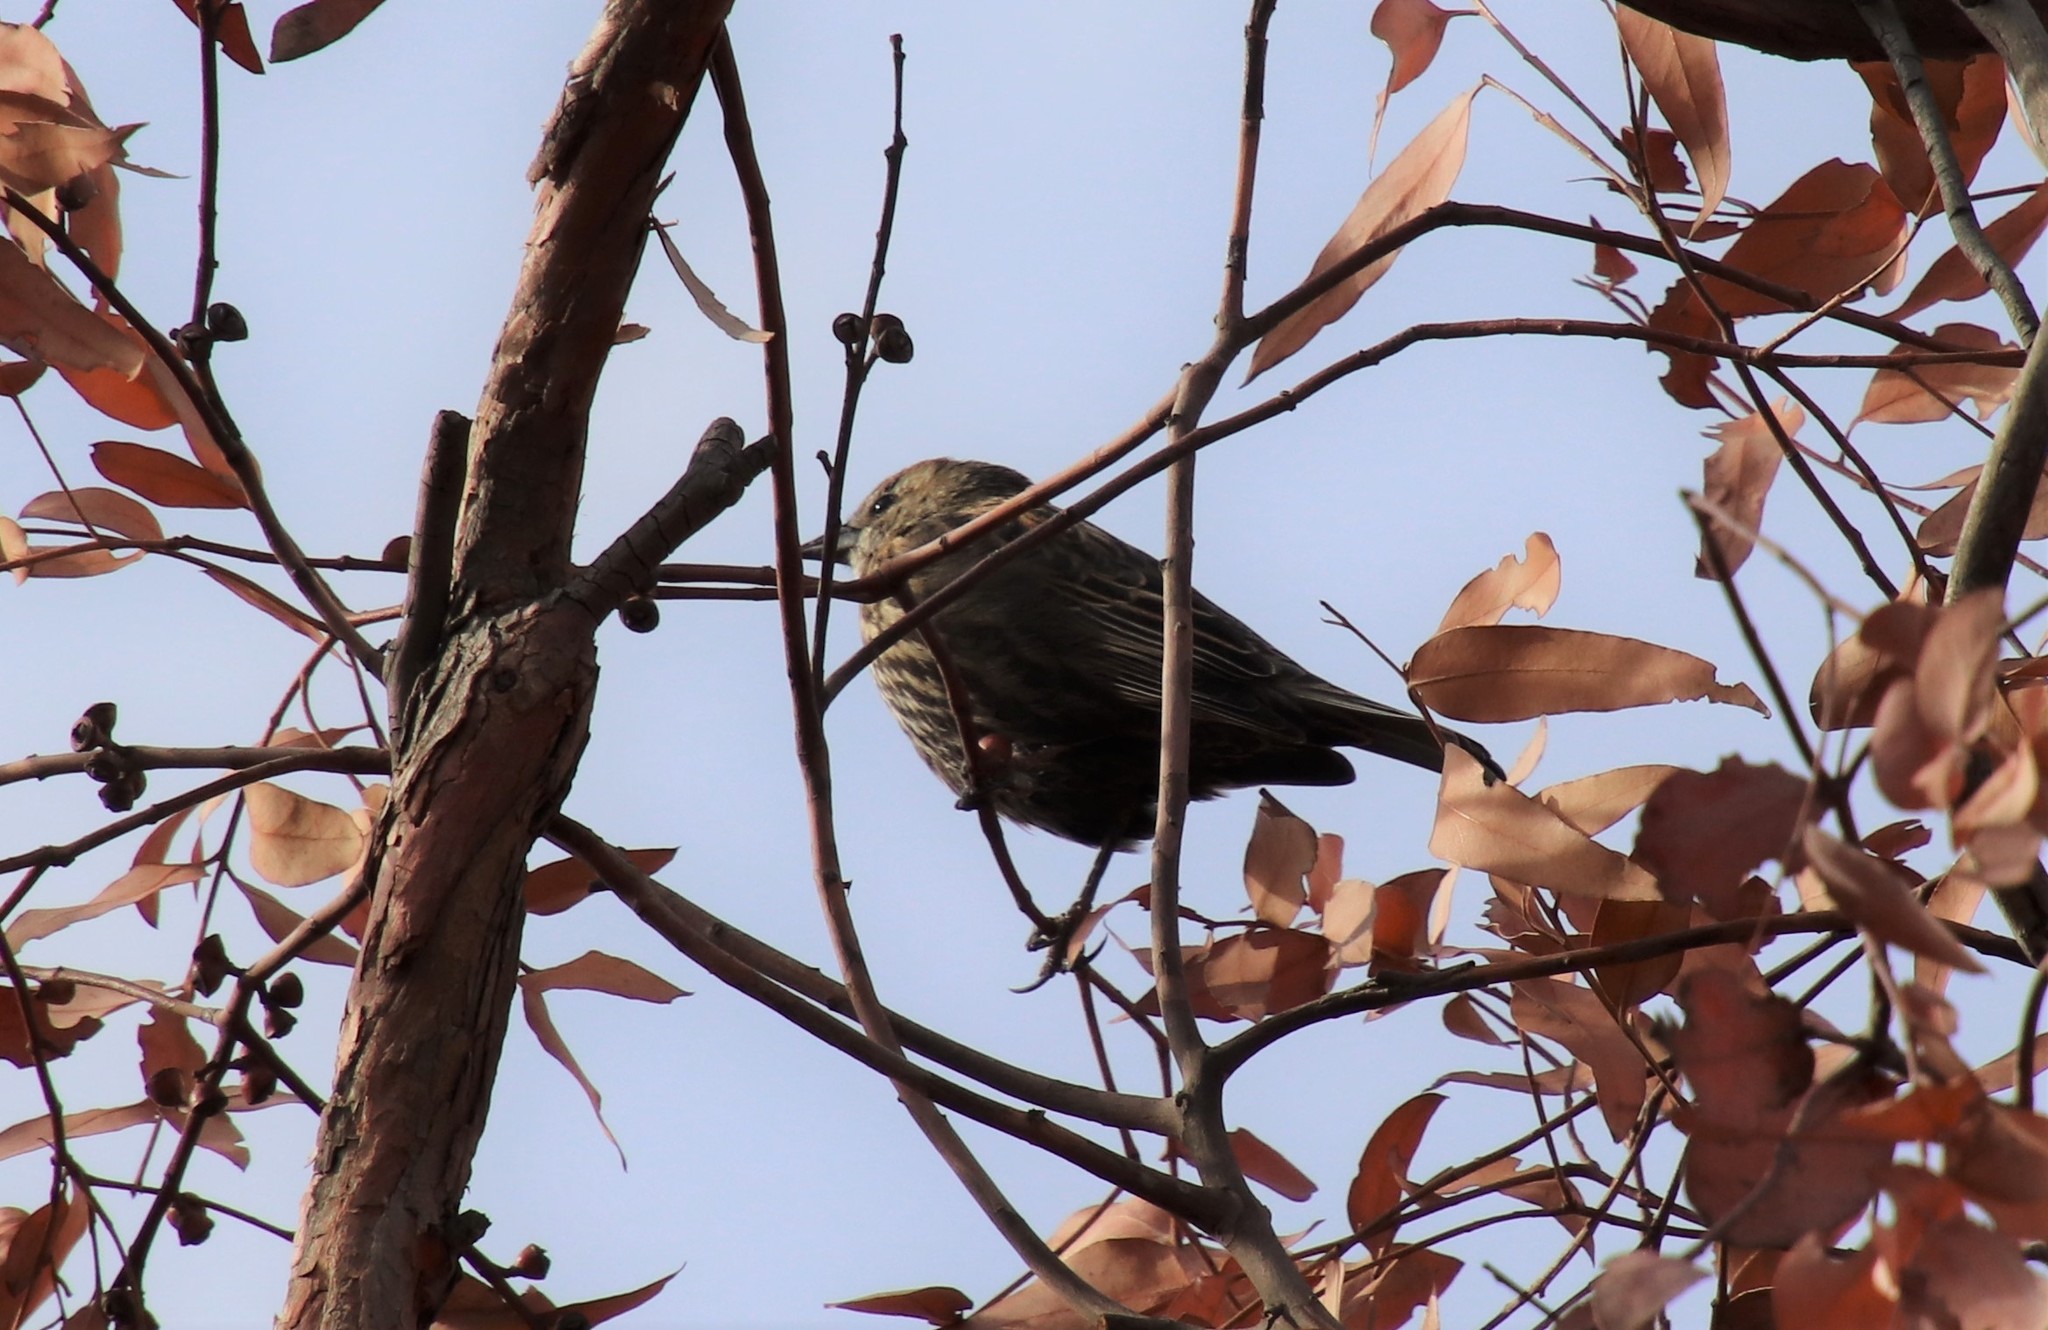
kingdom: Animalia
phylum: Chordata
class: Aves
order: Passeriformes
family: Icteridae
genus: Agelaius
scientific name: Agelaius phoeniceus
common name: Red-winged blackbird
